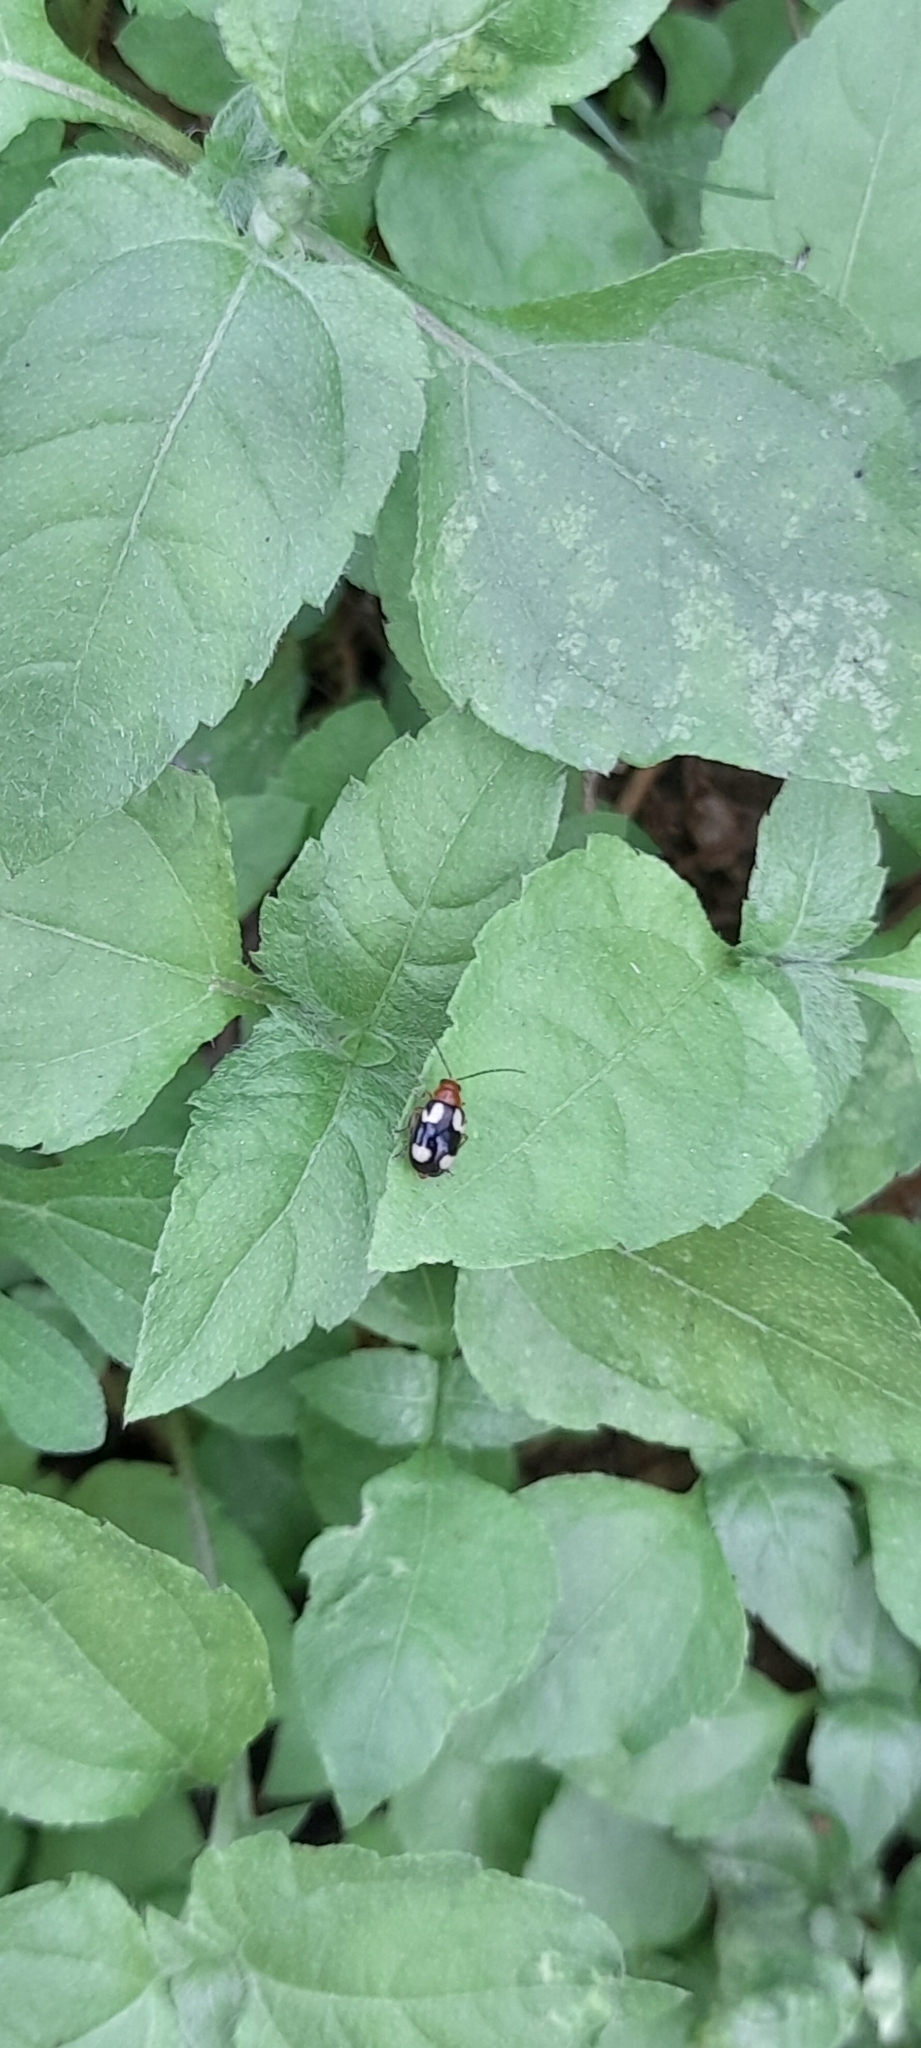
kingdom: Animalia
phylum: Arthropoda
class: Insecta
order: Coleoptera
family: Chrysomelidae
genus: Monolepta
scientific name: Monolepta signata
